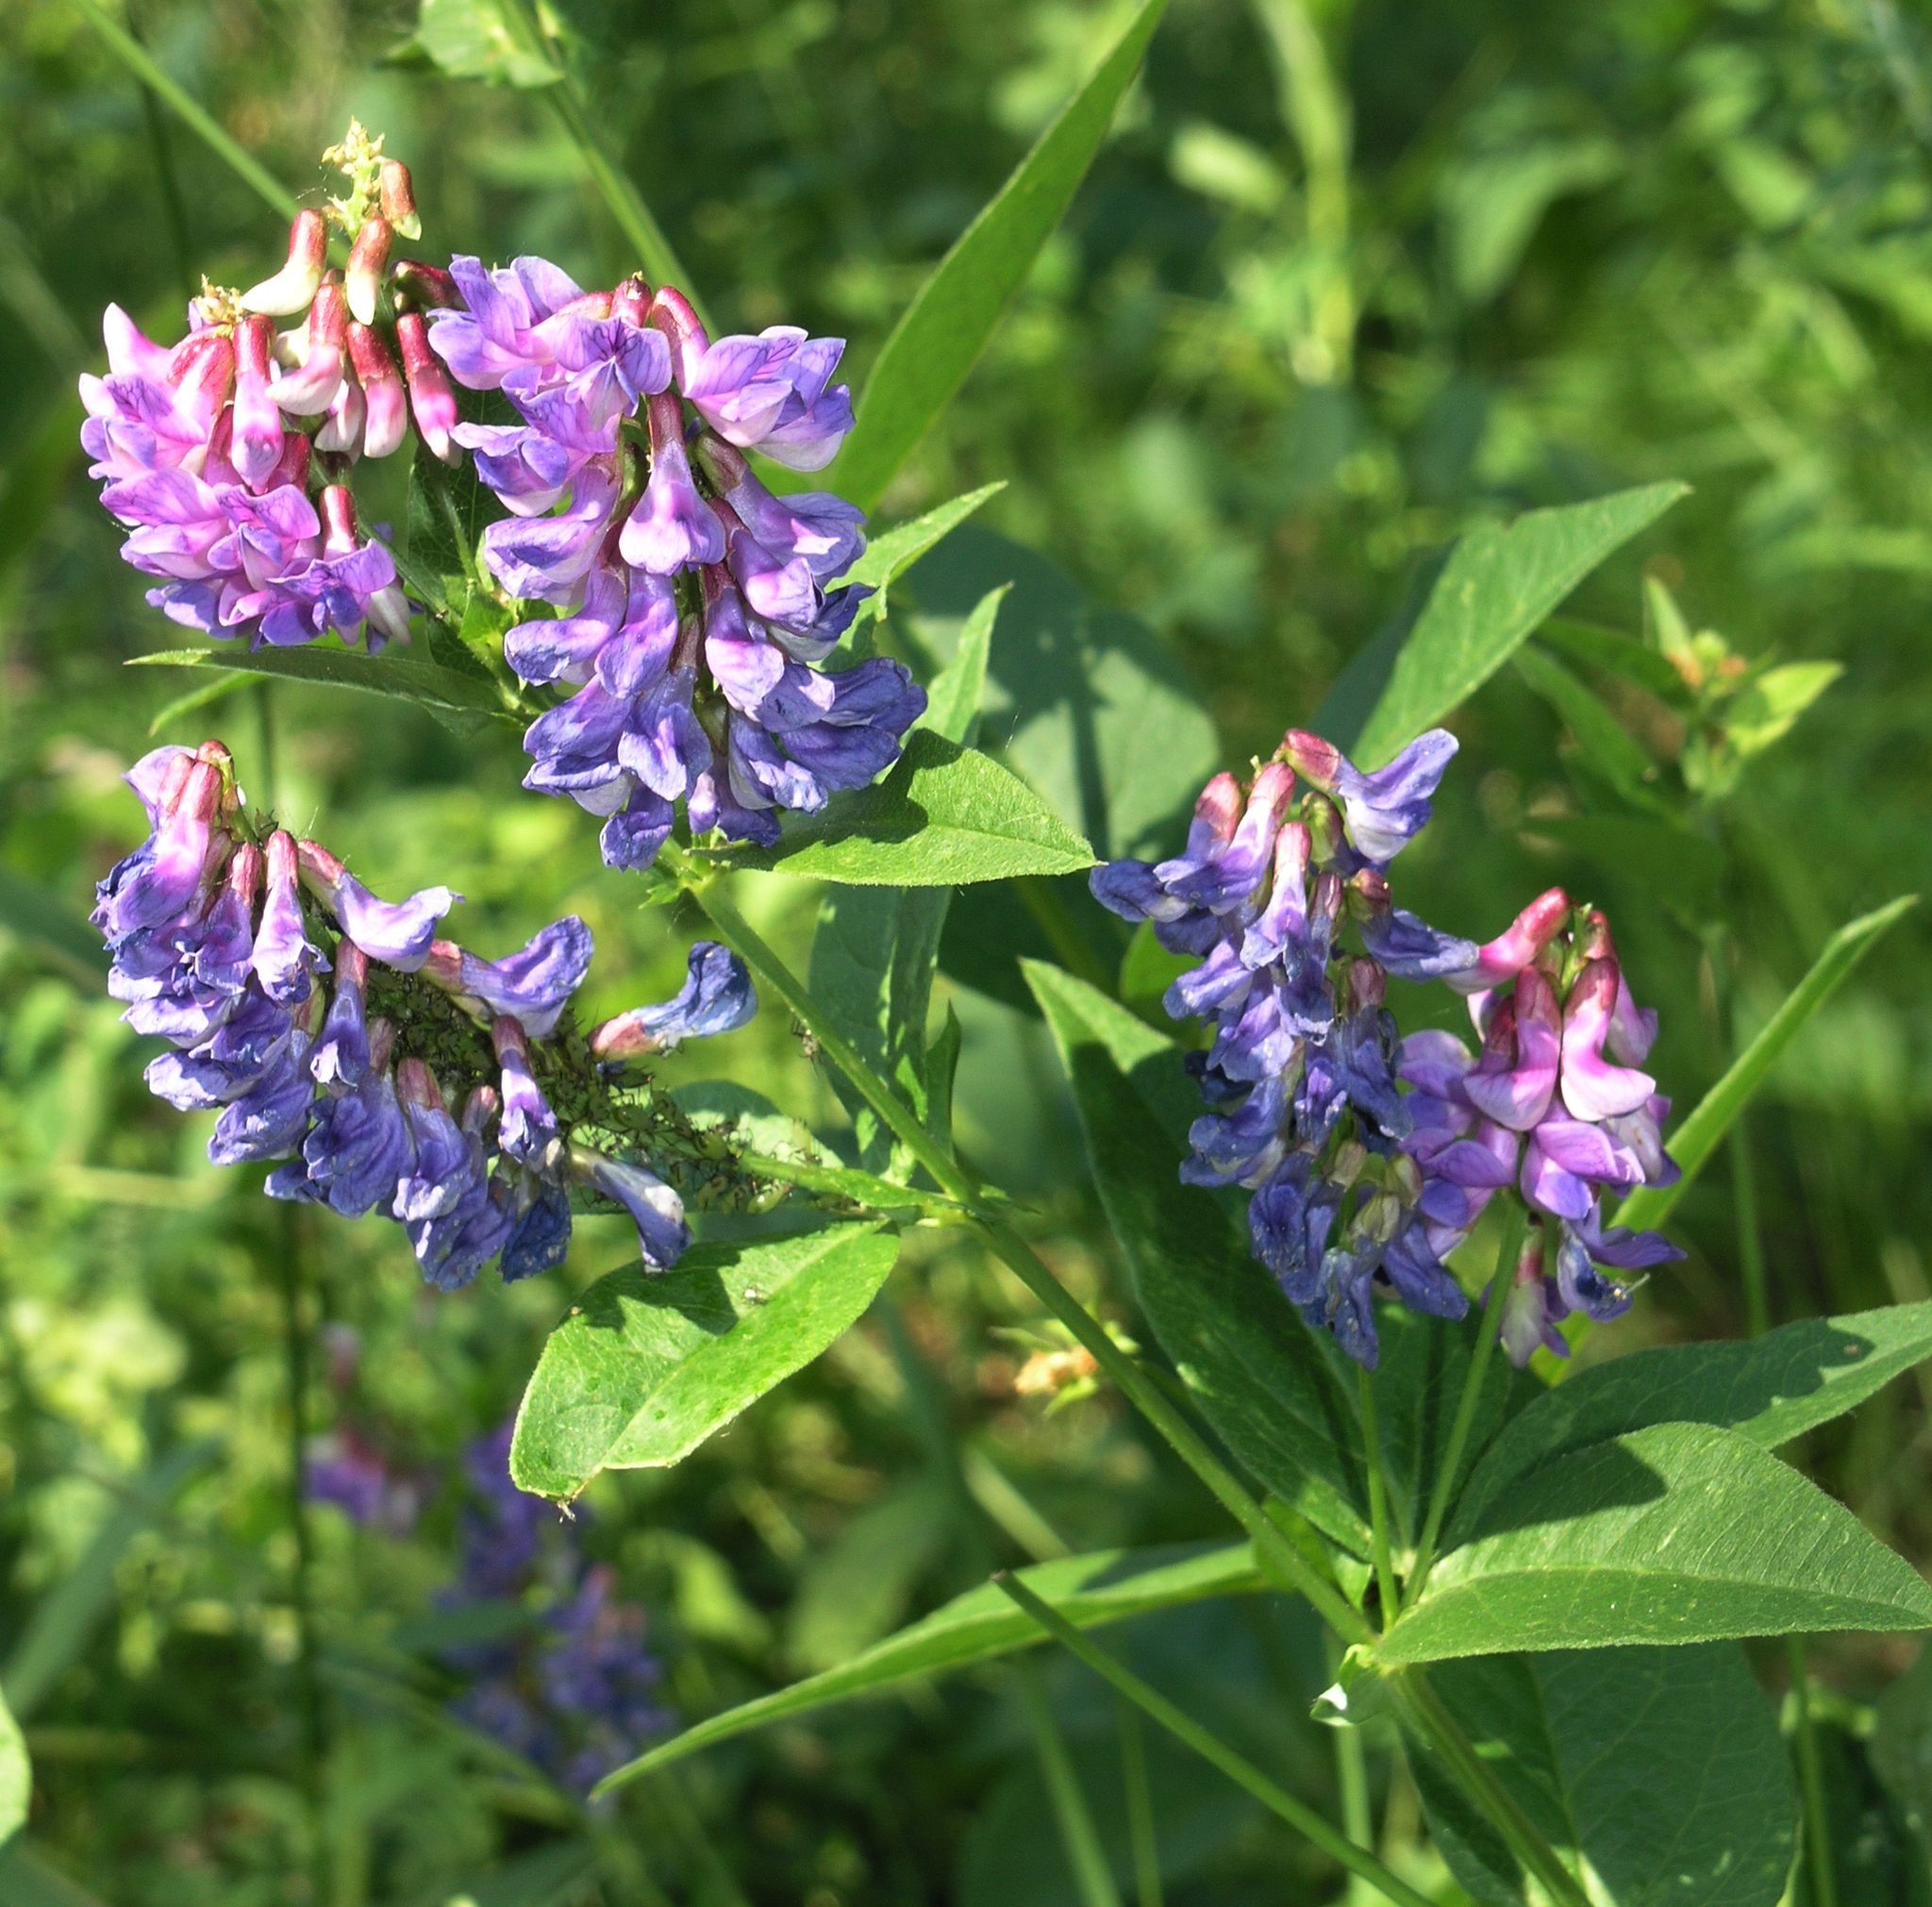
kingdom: Plantae
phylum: Tracheophyta
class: Magnoliopsida
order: Fabales
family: Fabaceae
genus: Vicia
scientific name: Vicia unijuga
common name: Two-leaf vetch
